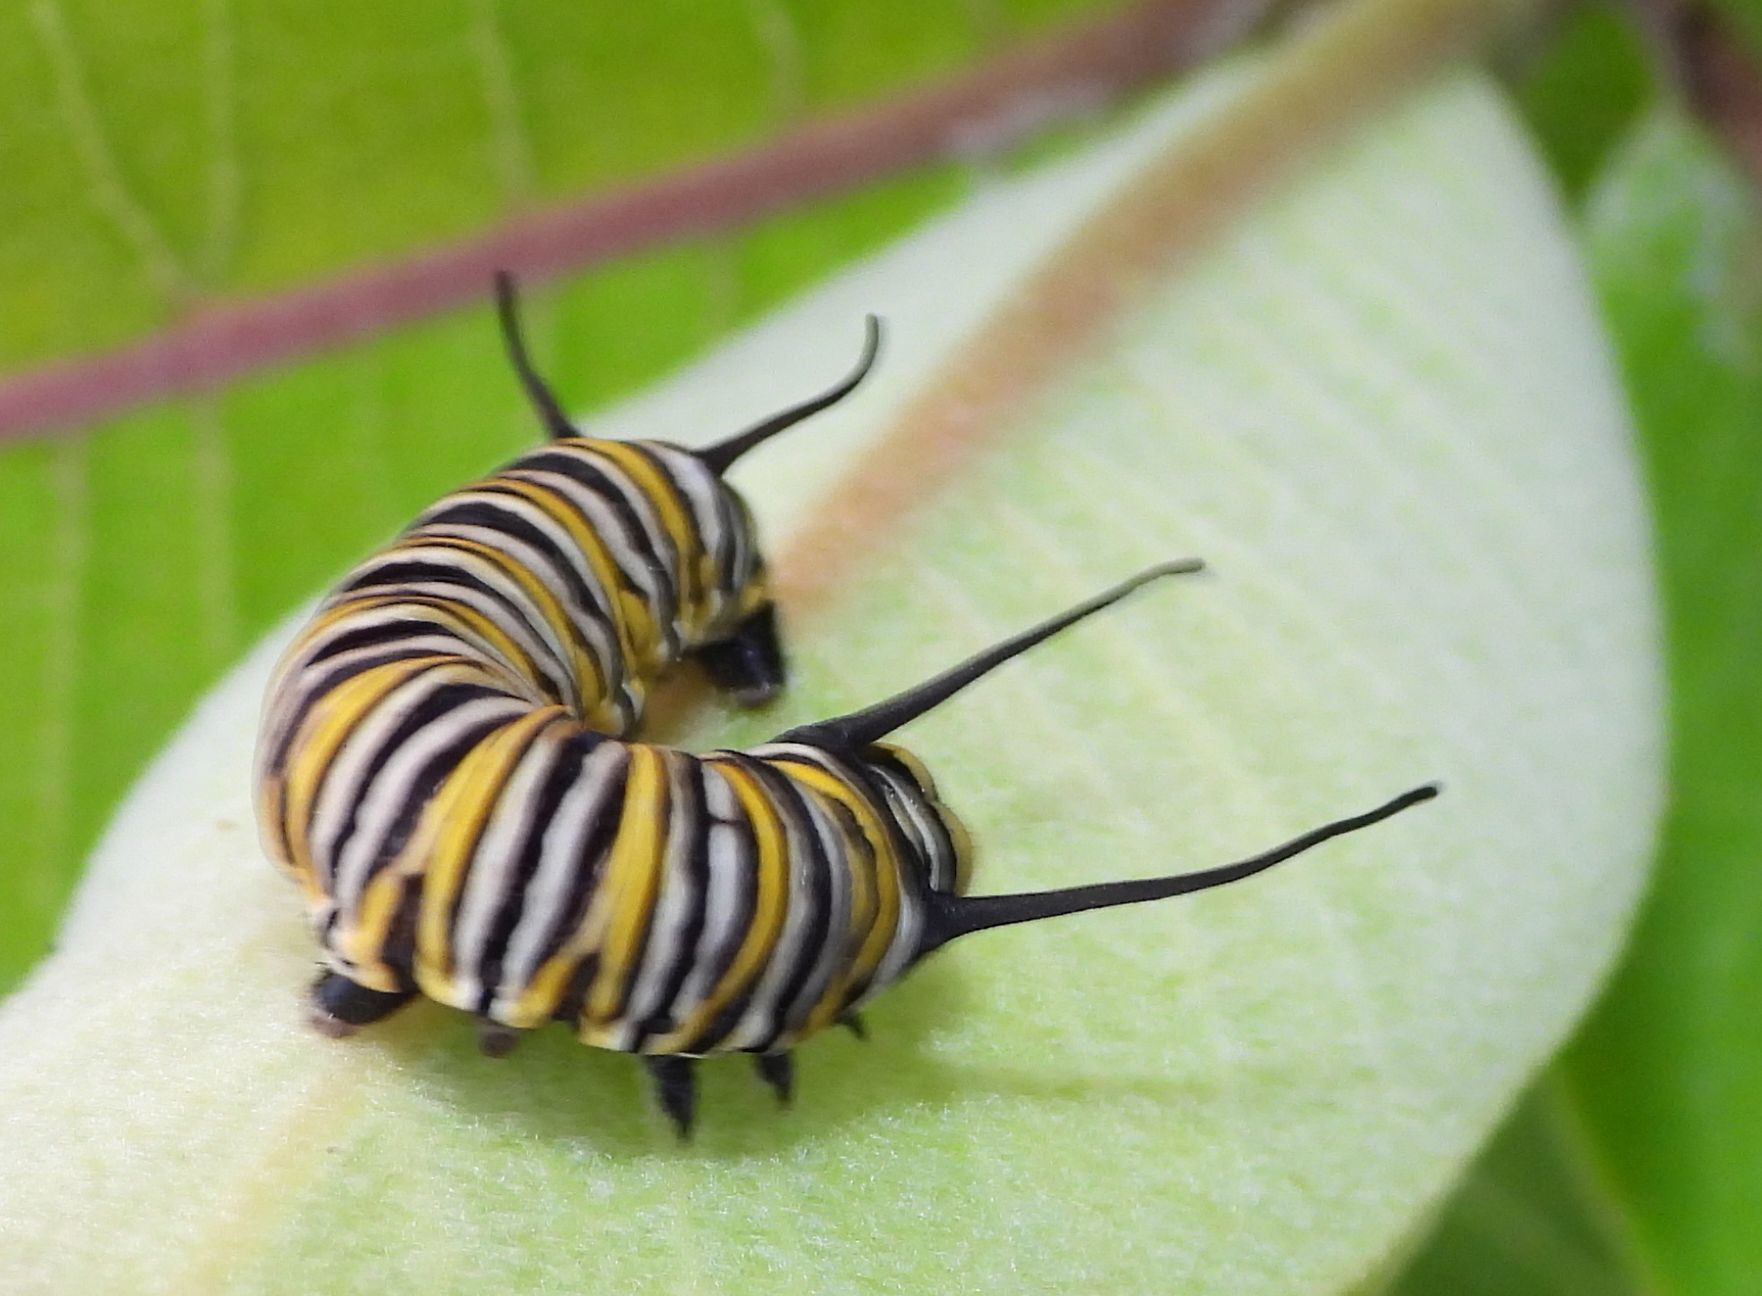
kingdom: Animalia
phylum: Arthropoda
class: Insecta
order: Lepidoptera
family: Nymphalidae
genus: Danaus
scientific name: Danaus plexippus
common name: Monarch
